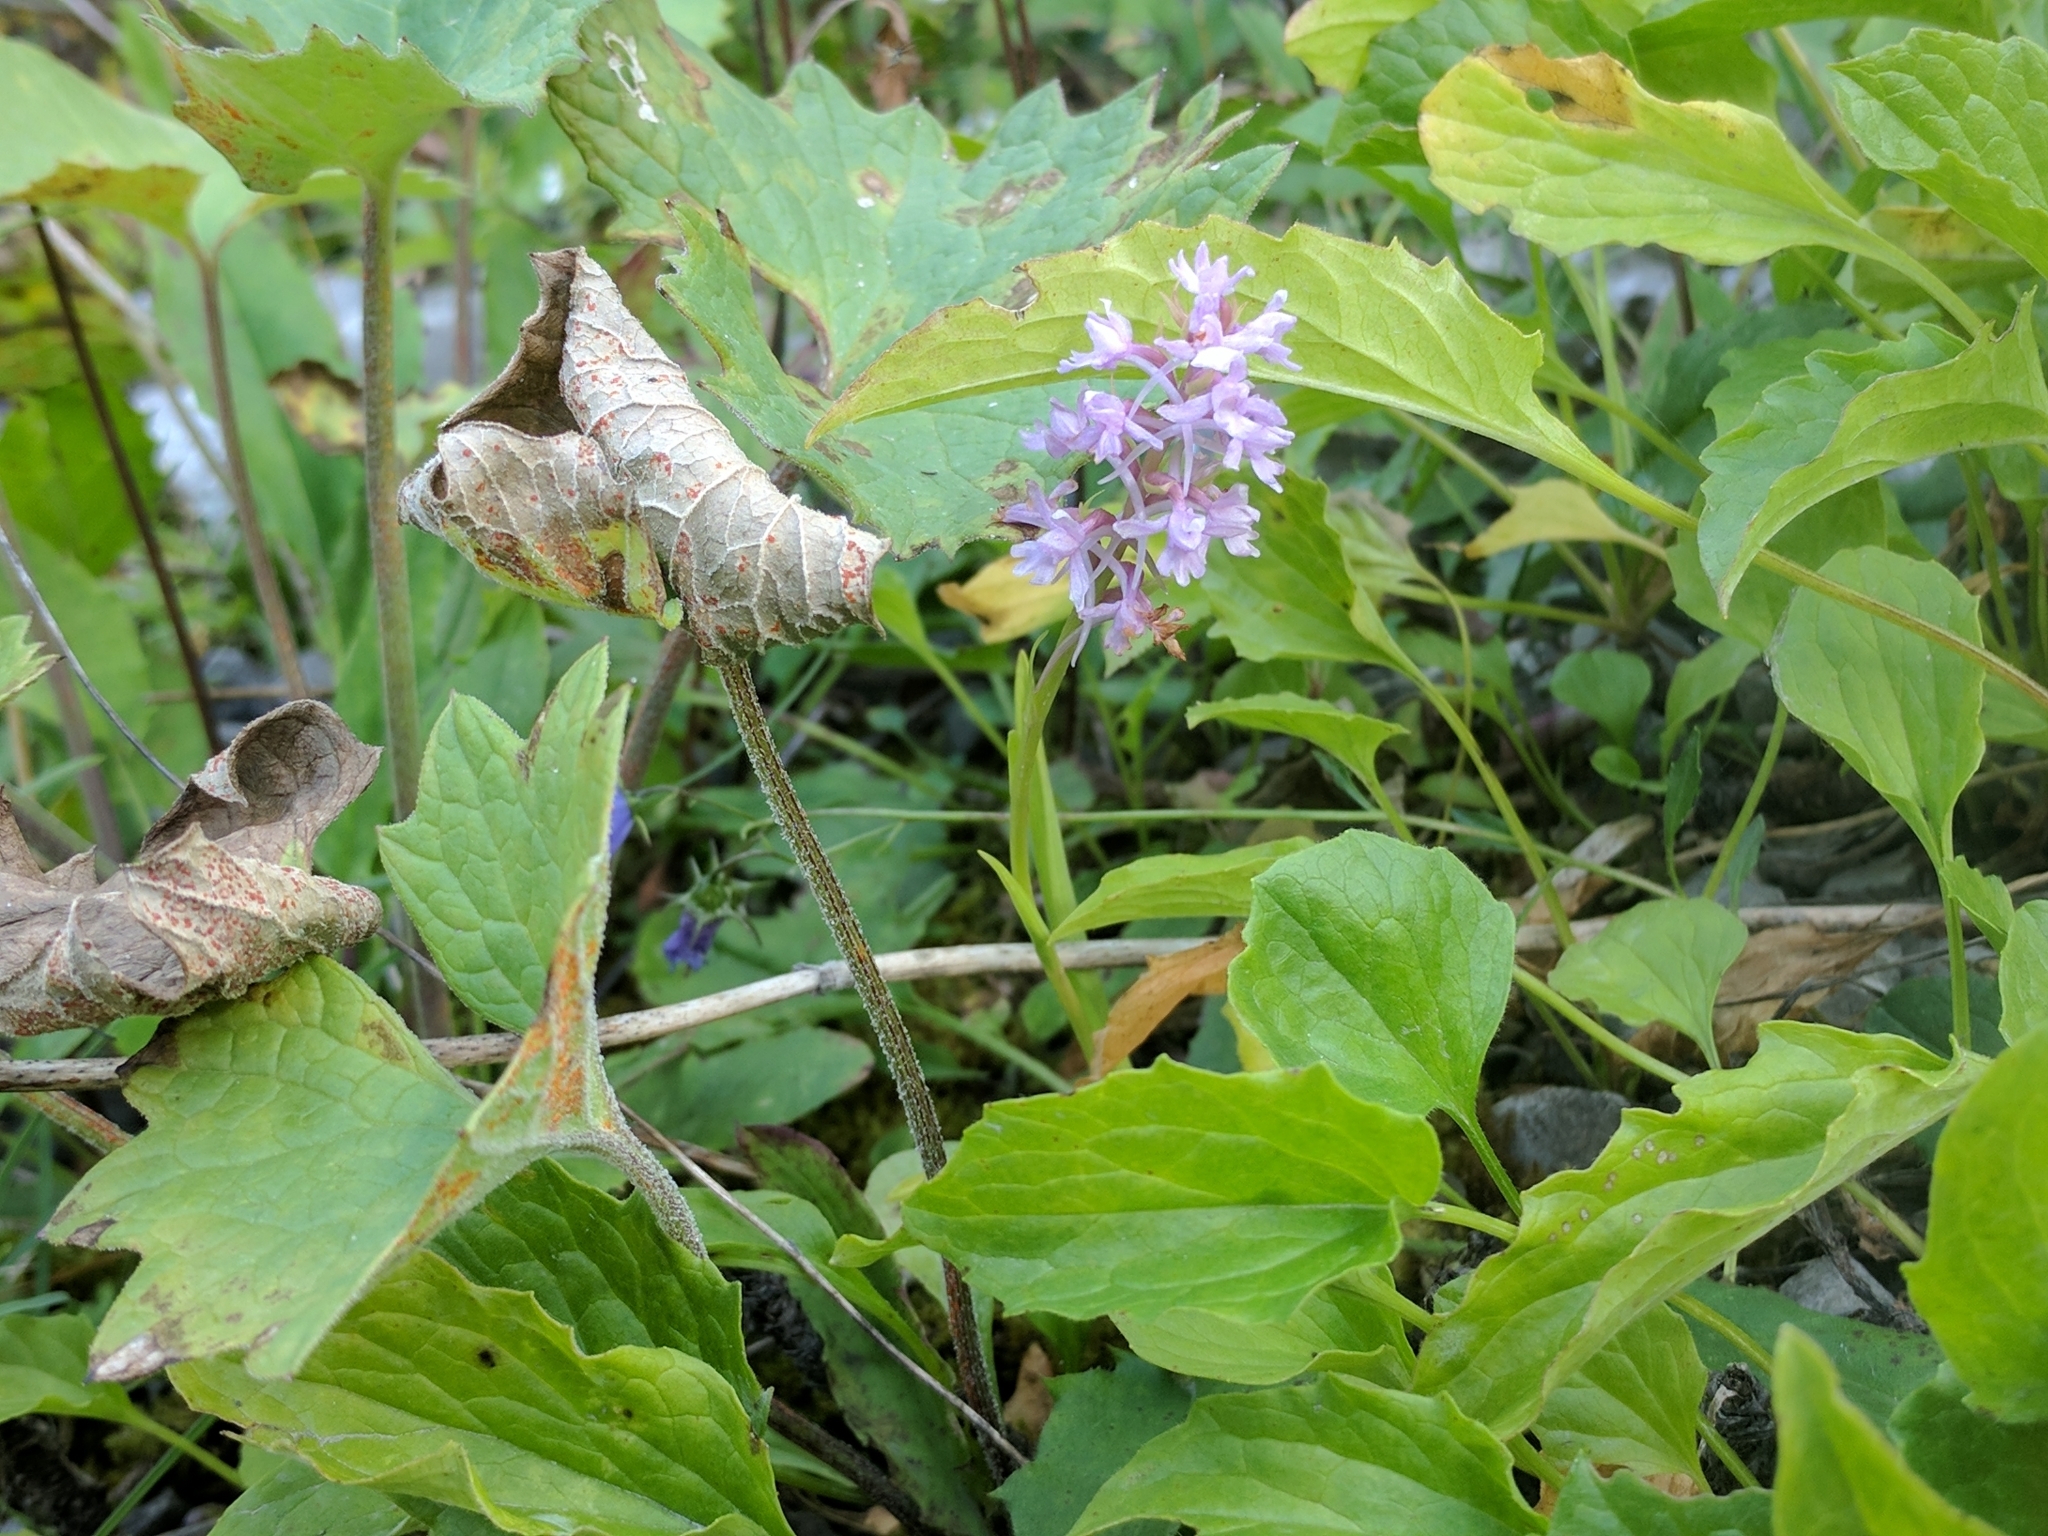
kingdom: Plantae
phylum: Tracheophyta
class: Liliopsida
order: Asparagales
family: Orchidaceae
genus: Gymnadenia
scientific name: Gymnadenia conopsea
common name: Fragrant orchid
